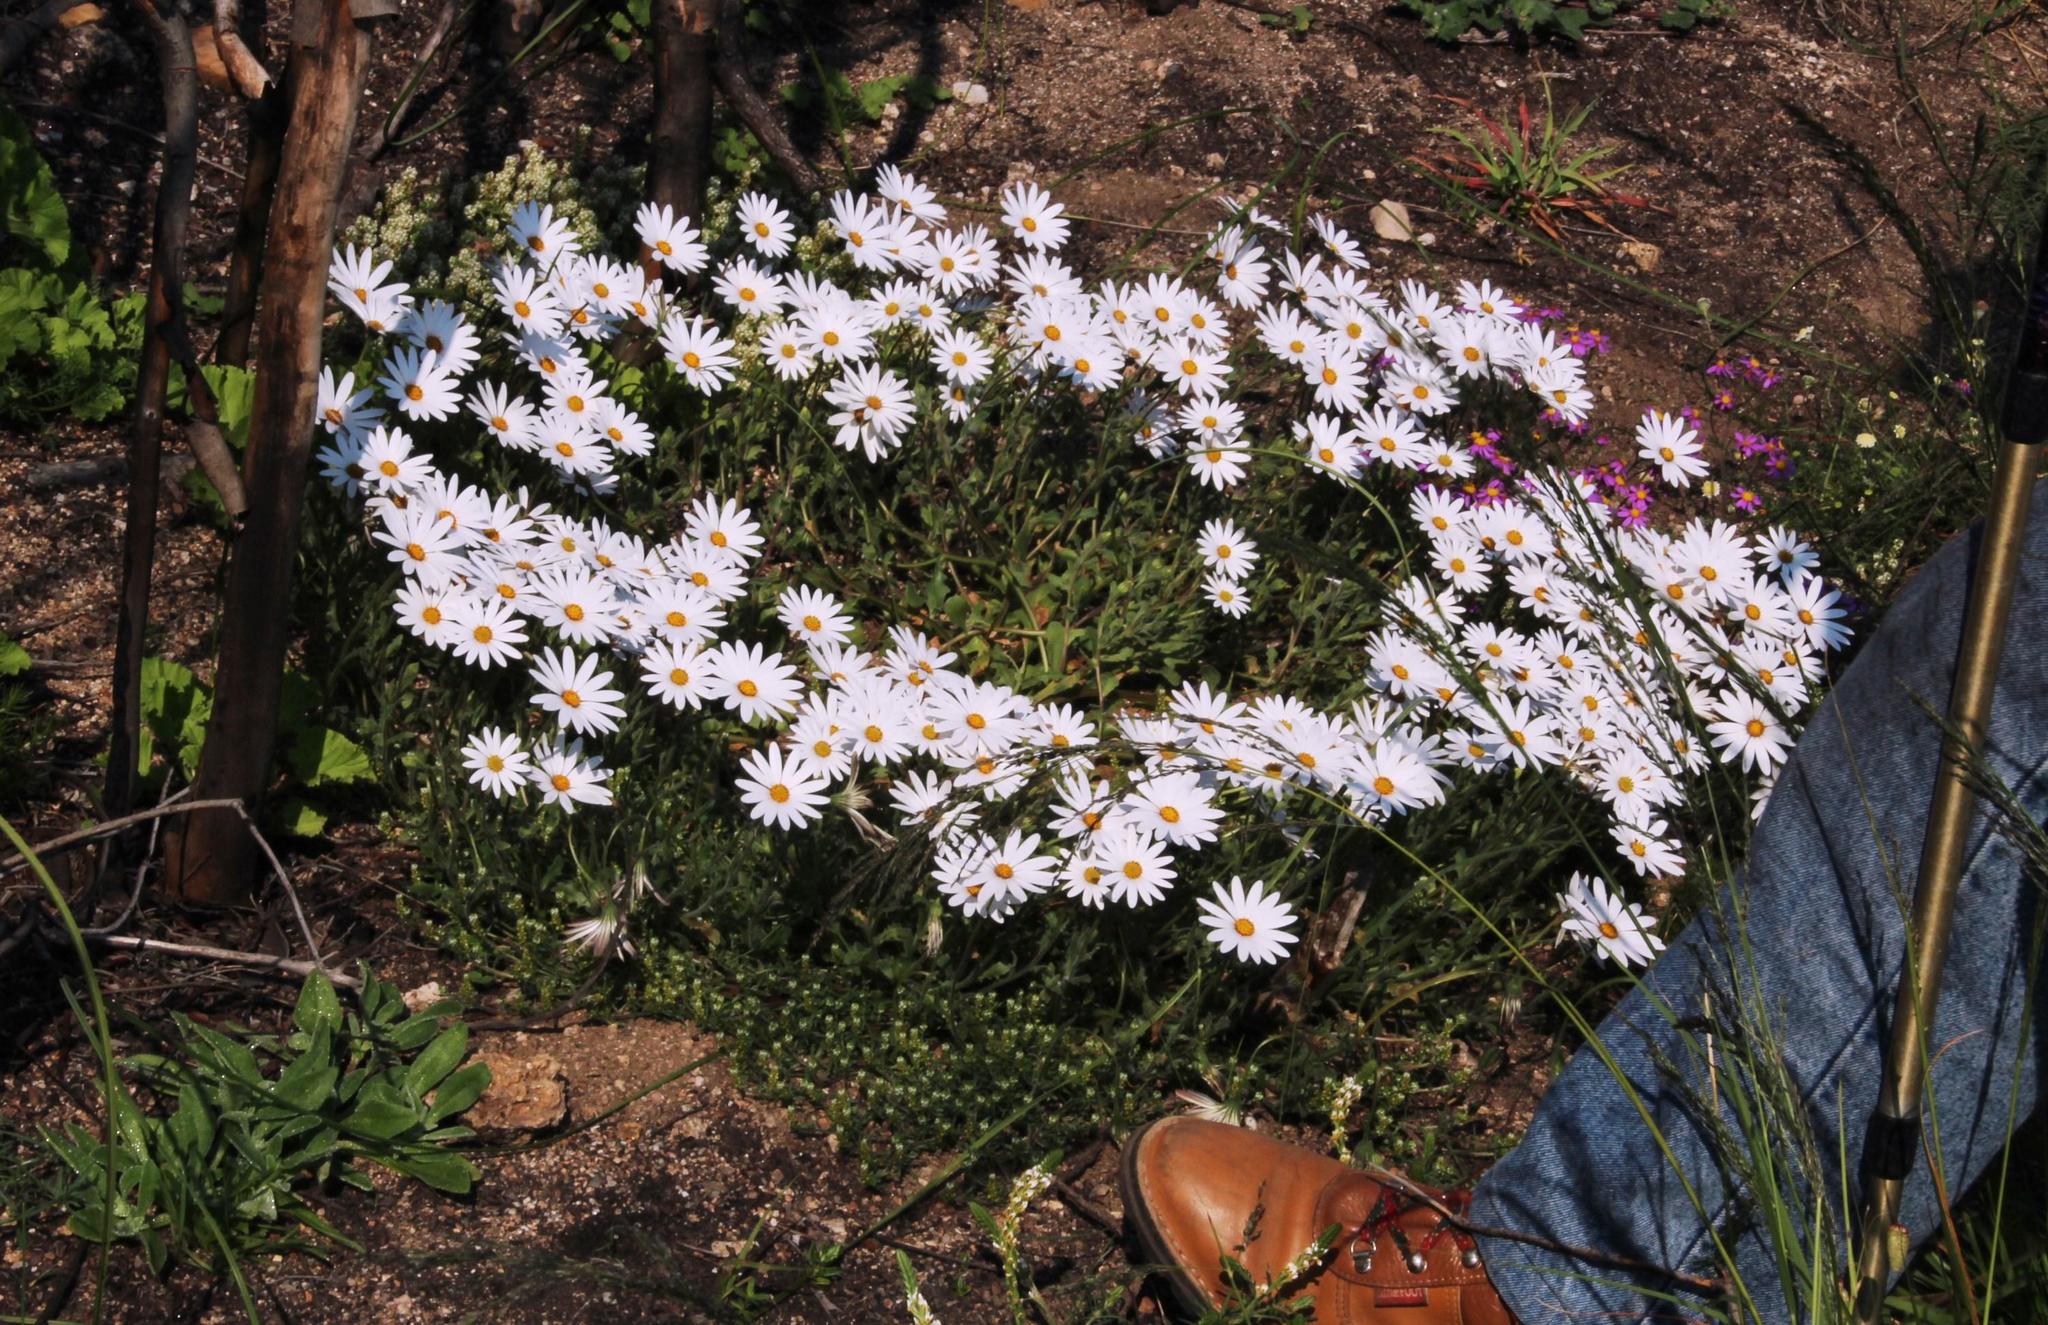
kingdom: Plantae
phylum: Tracheophyta
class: Magnoliopsida
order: Asterales
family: Asteraceae
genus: Dimorphotheca
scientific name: Dimorphotheca pluvialis
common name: Weather prophet
